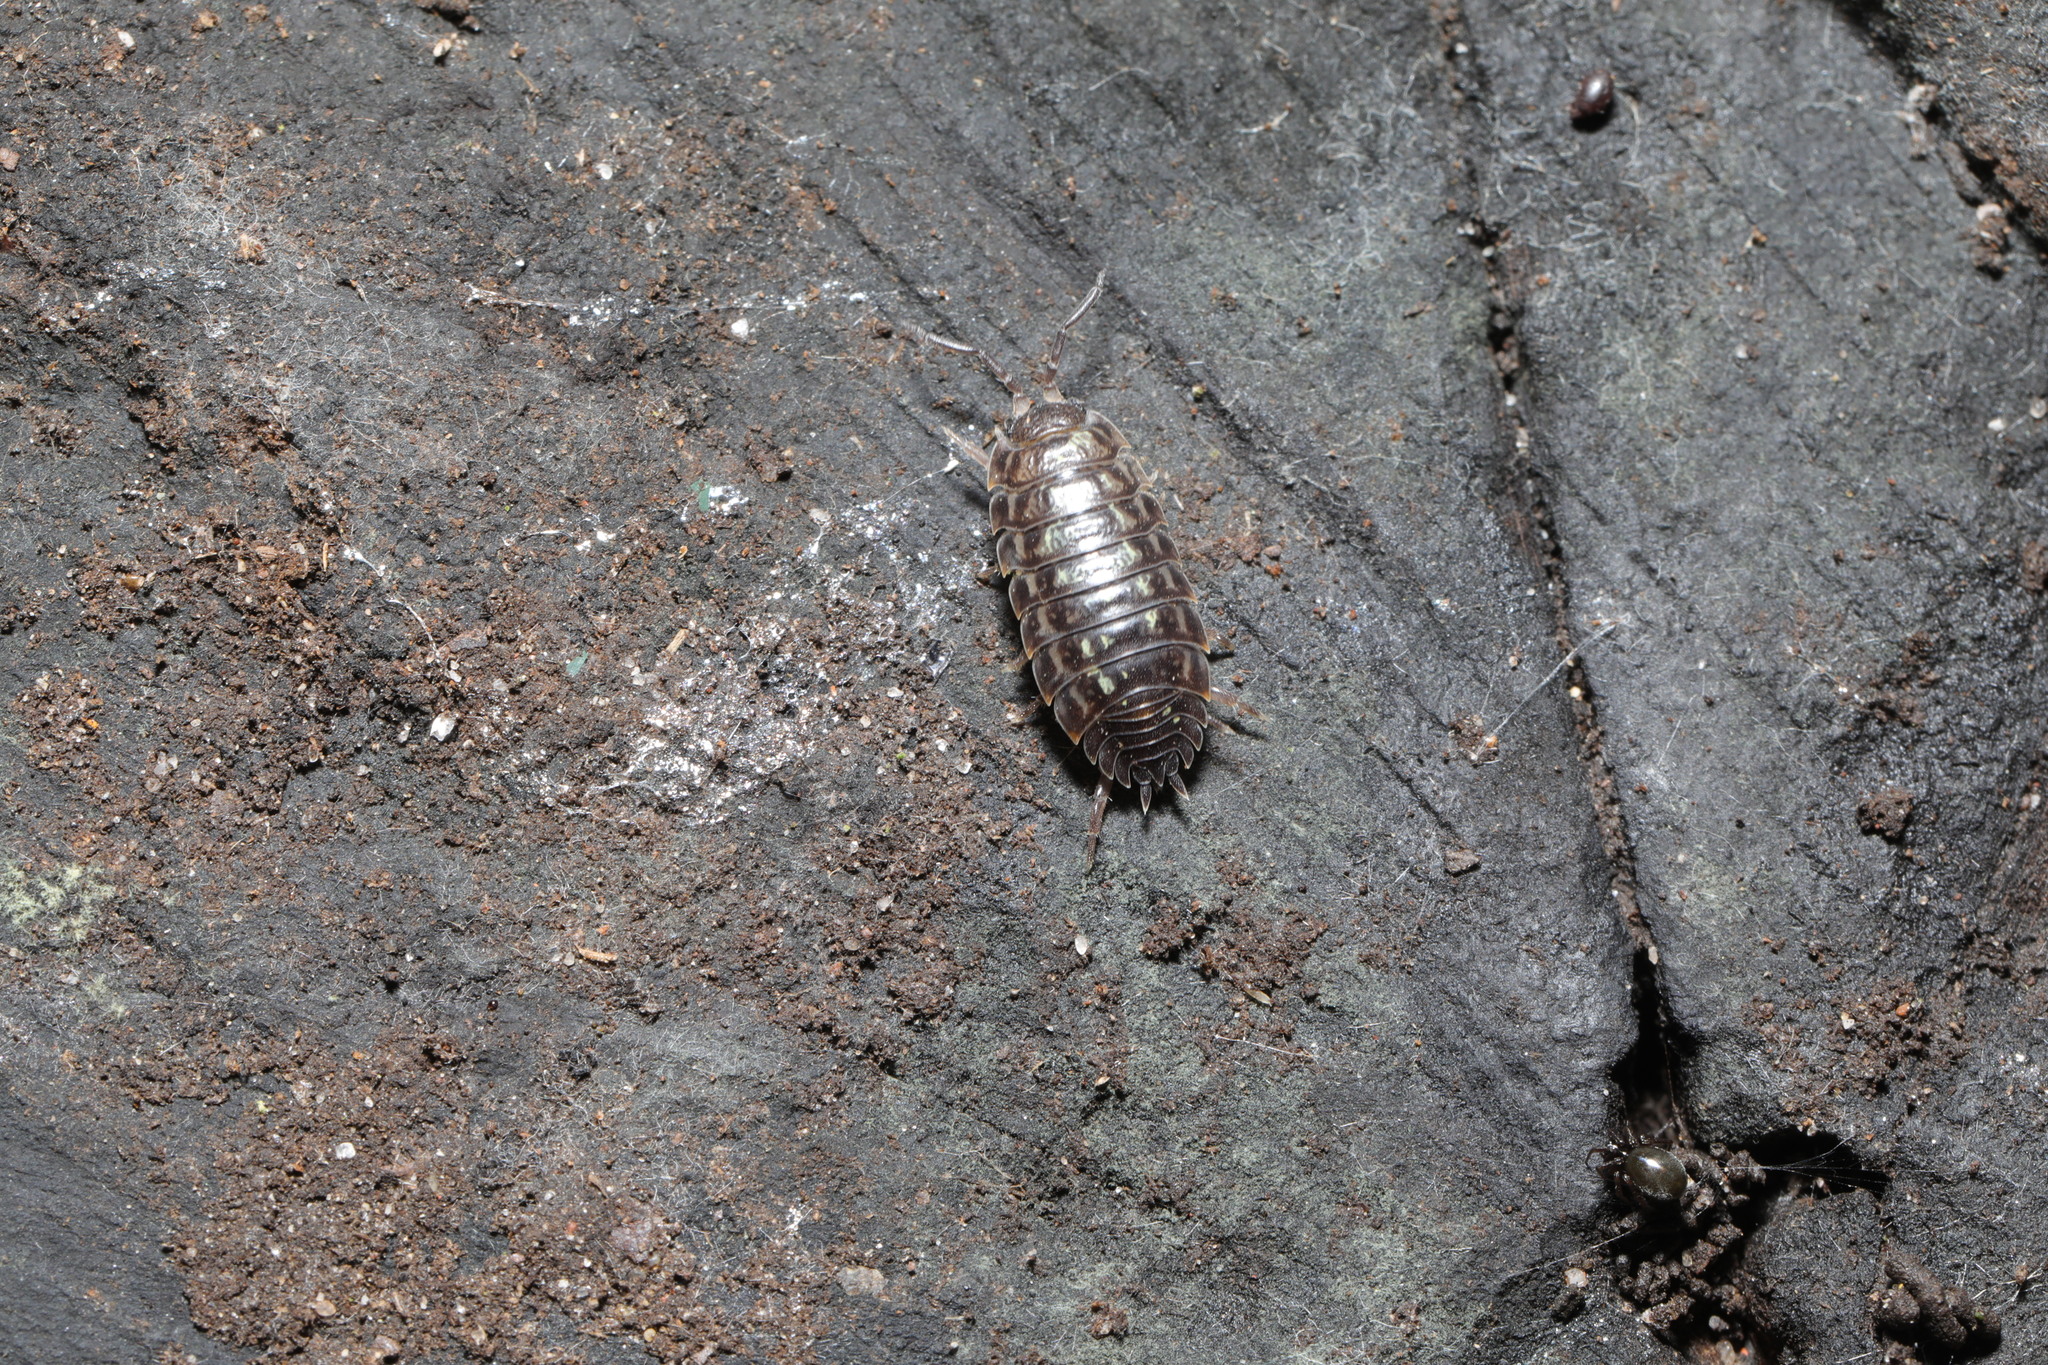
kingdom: Animalia
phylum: Arthropoda
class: Malacostraca
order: Isopoda
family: Oniscidae
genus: Oniscus
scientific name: Oniscus asellus
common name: Common shiny woodlouse
